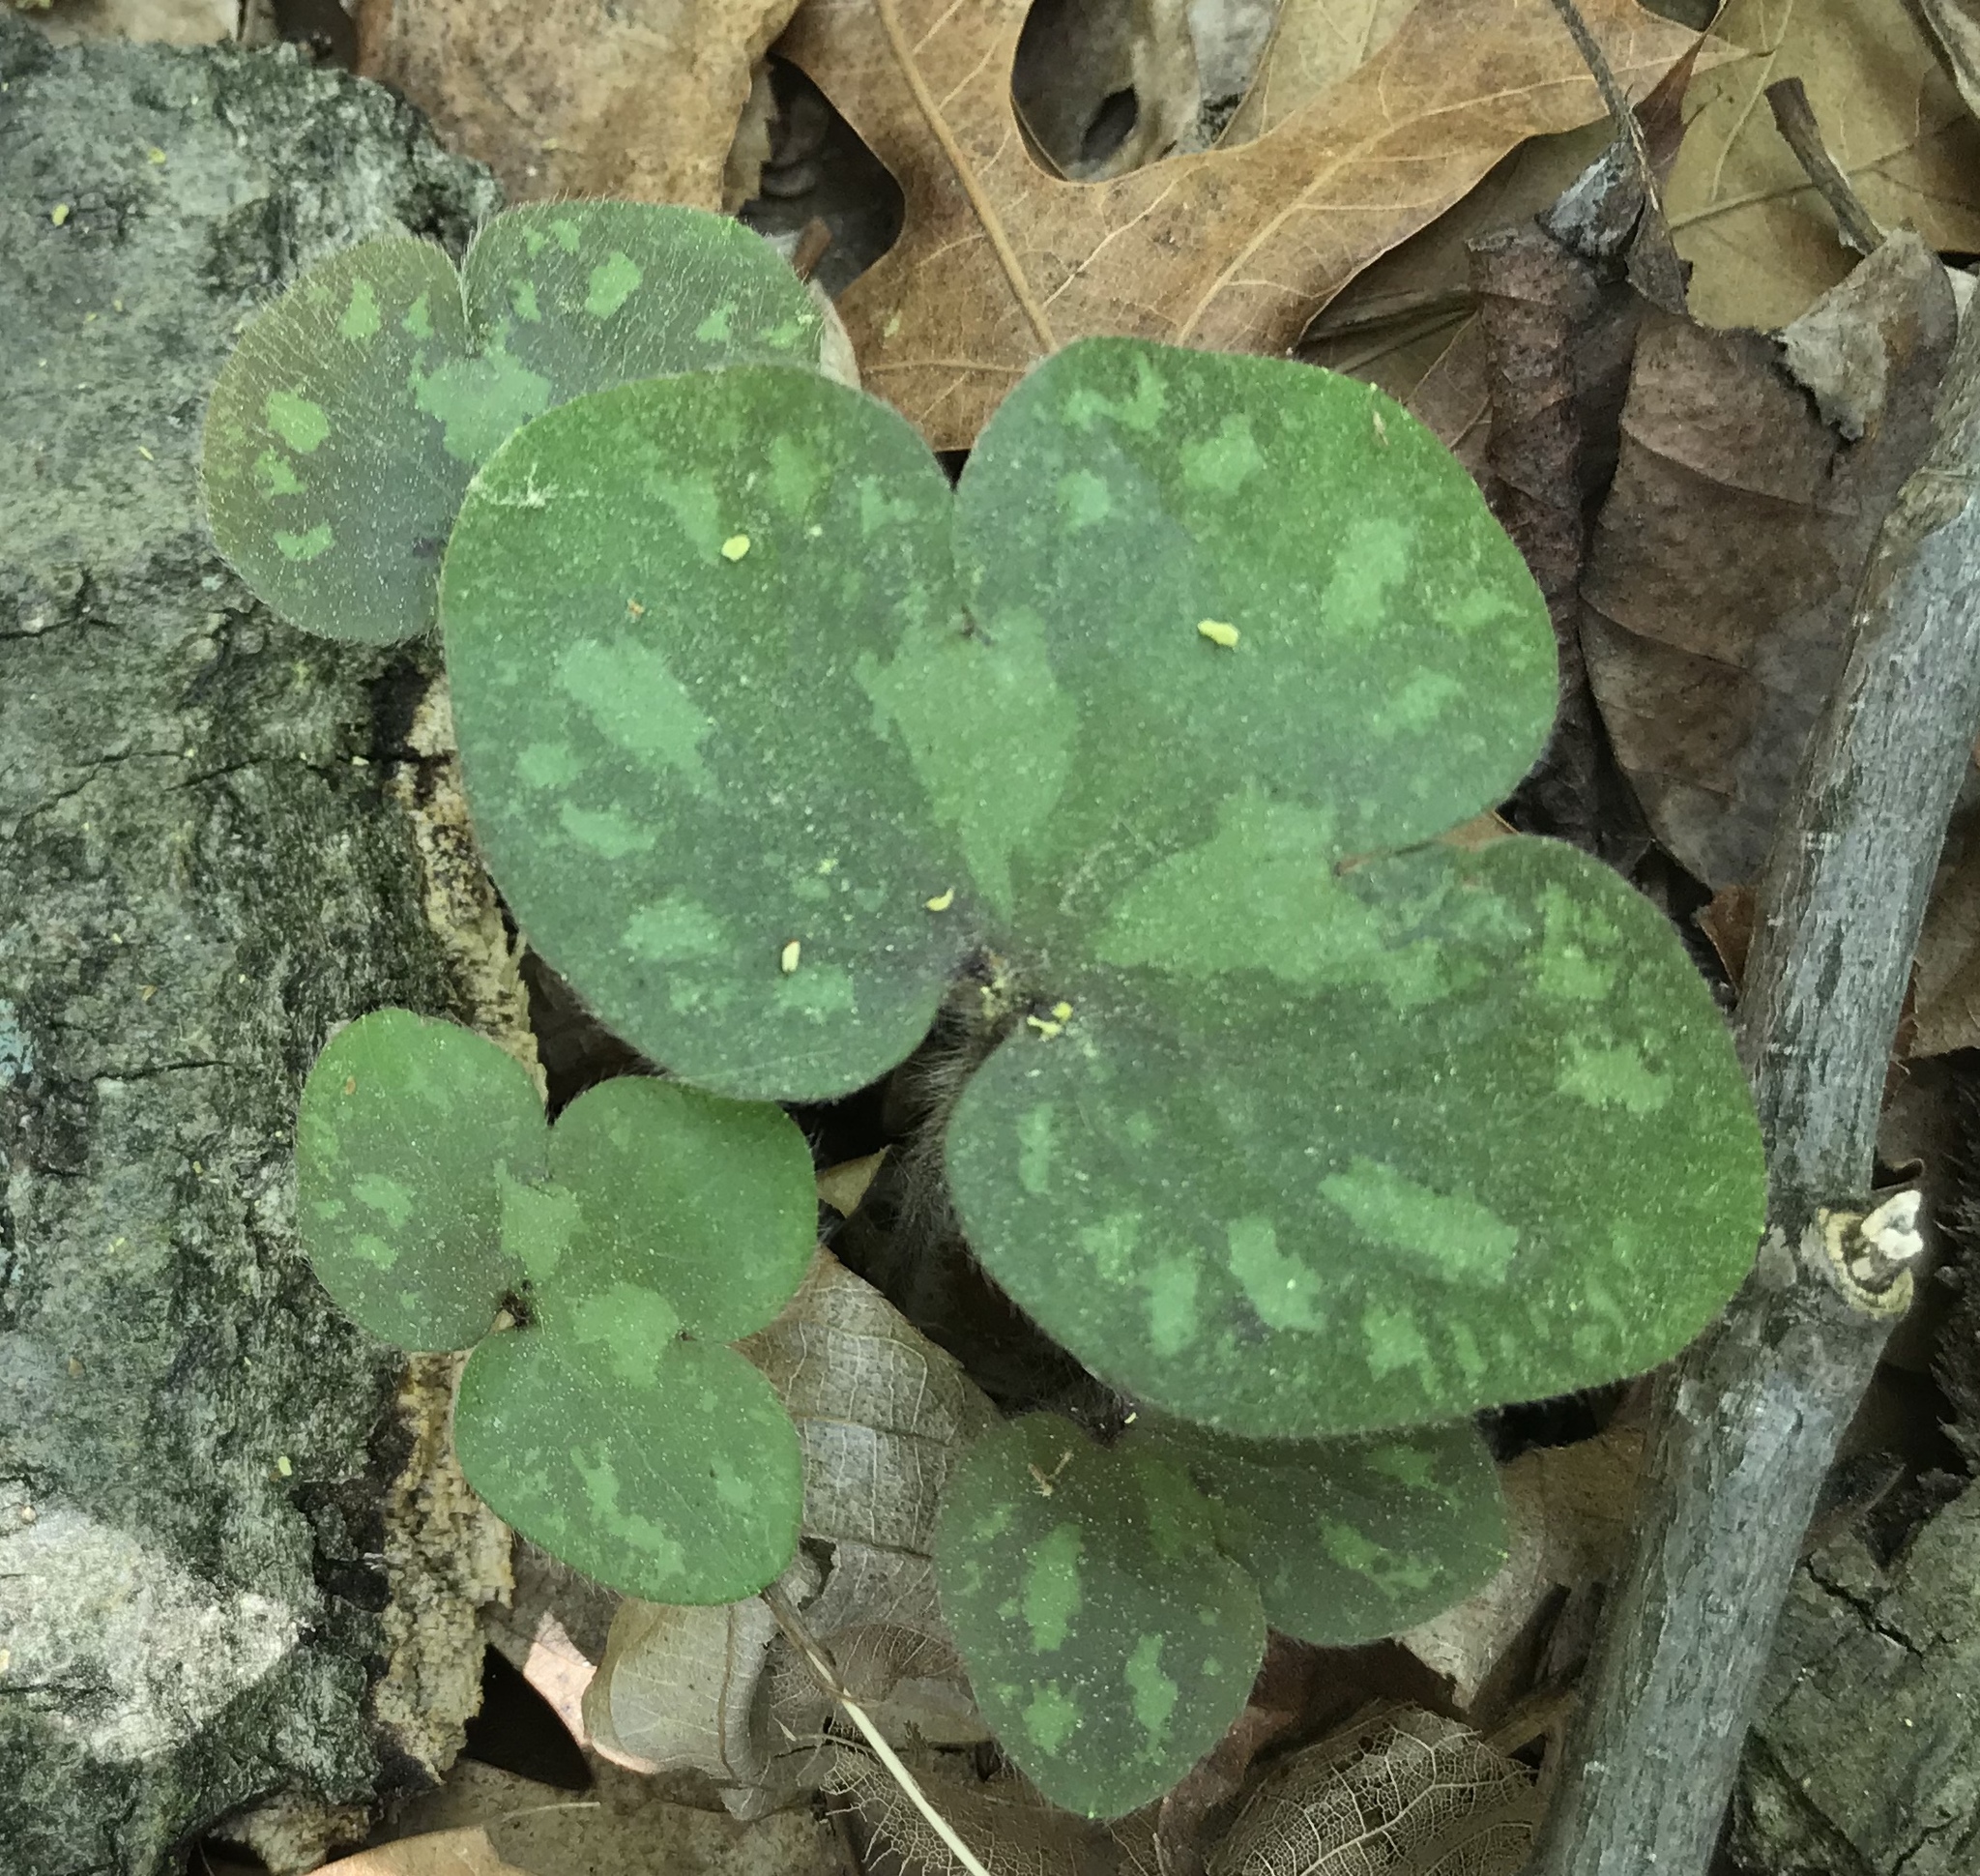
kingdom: Plantae
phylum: Tracheophyta
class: Magnoliopsida
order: Ranunculales
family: Ranunculaceae
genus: Hepatica
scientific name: Hepatica americana
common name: American hepatica
